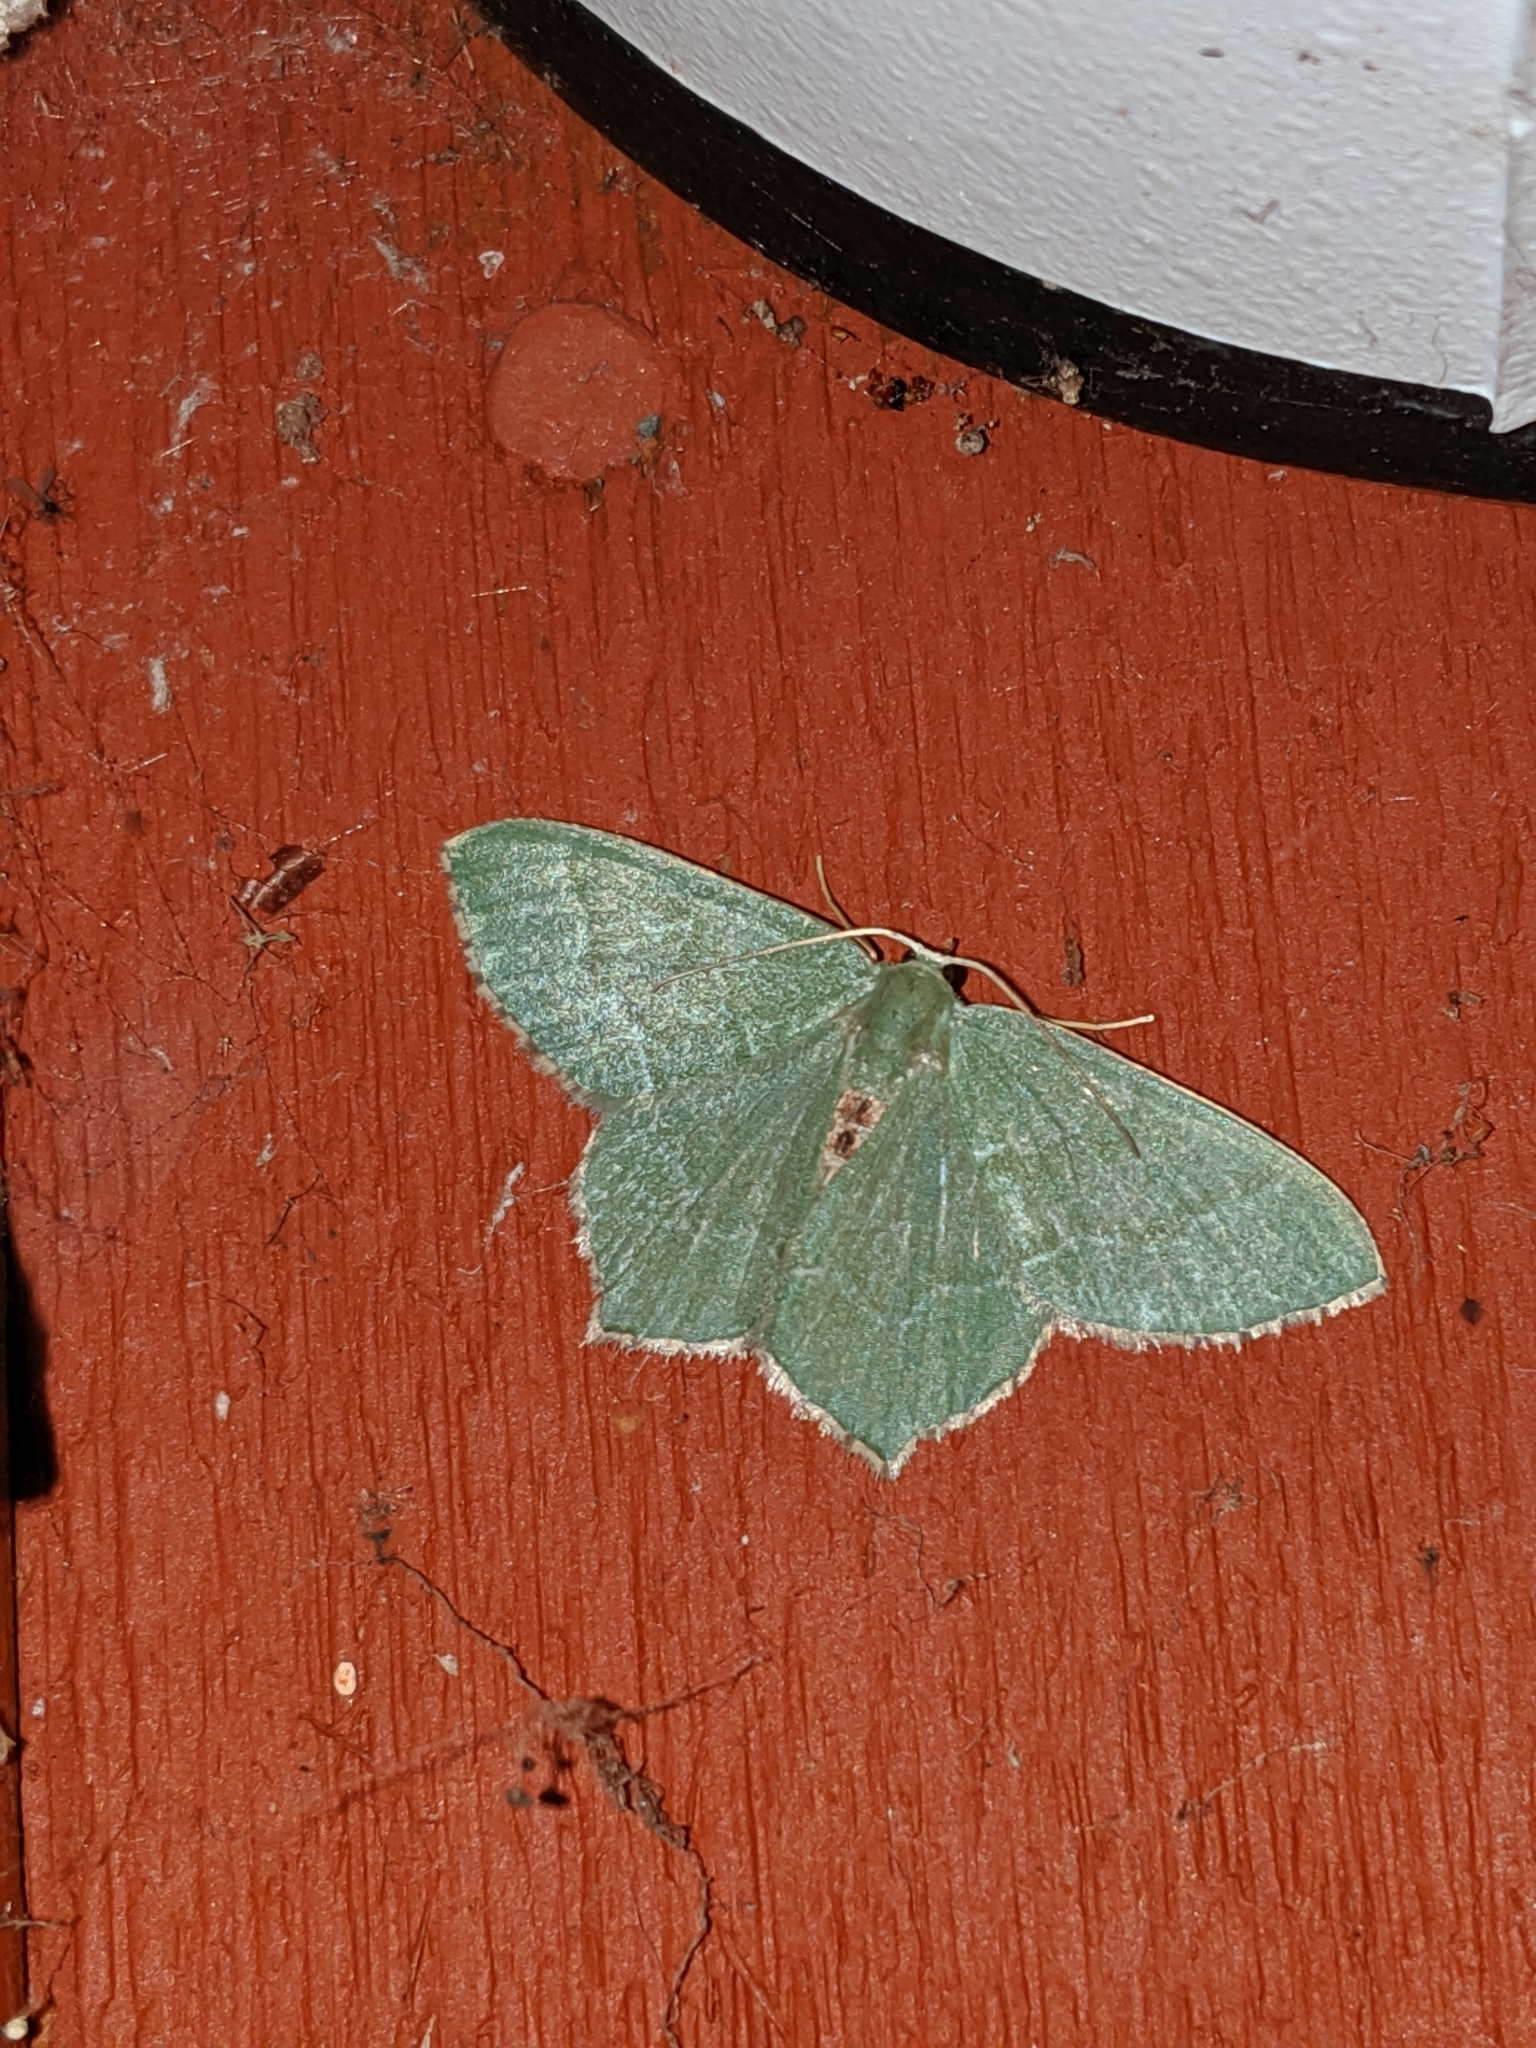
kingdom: Animalia
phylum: Arthropoda
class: Insecta
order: Lepidoptera
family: Geometridae
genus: Hemithea
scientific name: Hemithea aestivaria
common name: Common emerald
